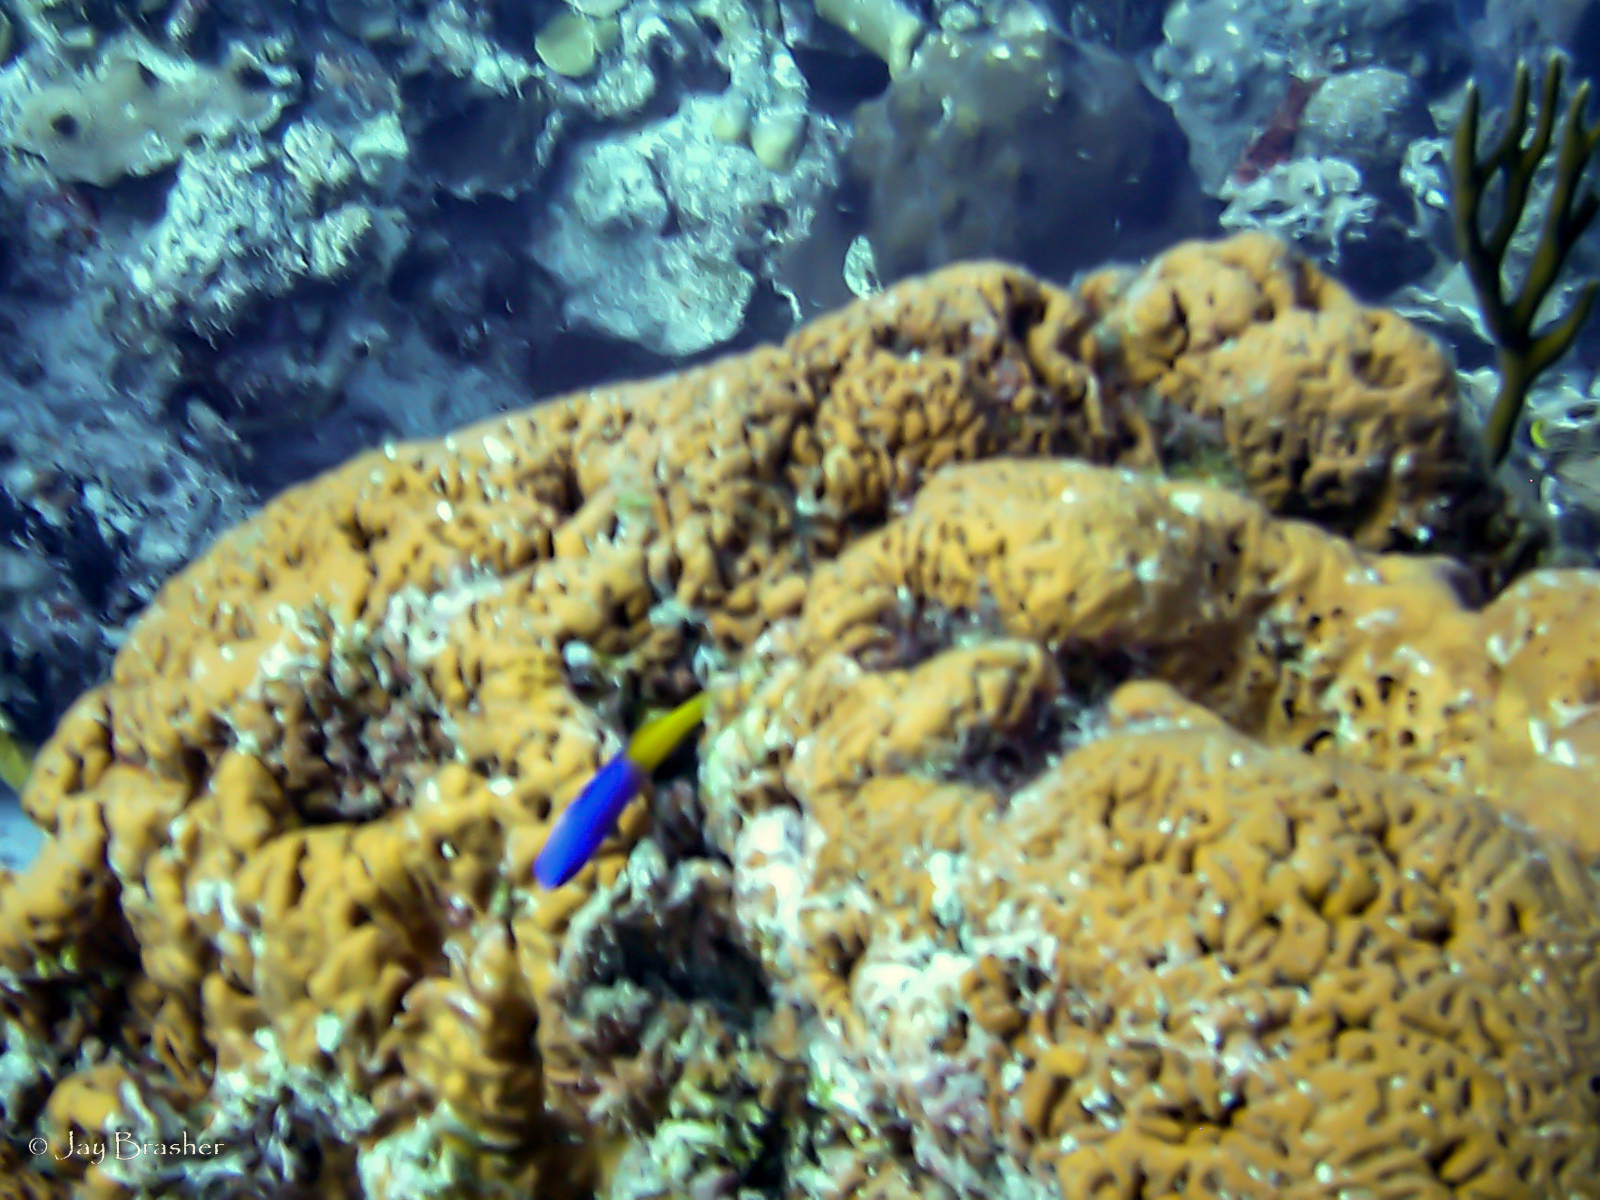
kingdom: Animalia
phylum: Porifera
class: Demospongiae
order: Agelasida
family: Agelasidae
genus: Agelas
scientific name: Agelas clathrodes
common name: Orange elephant ear sponge
